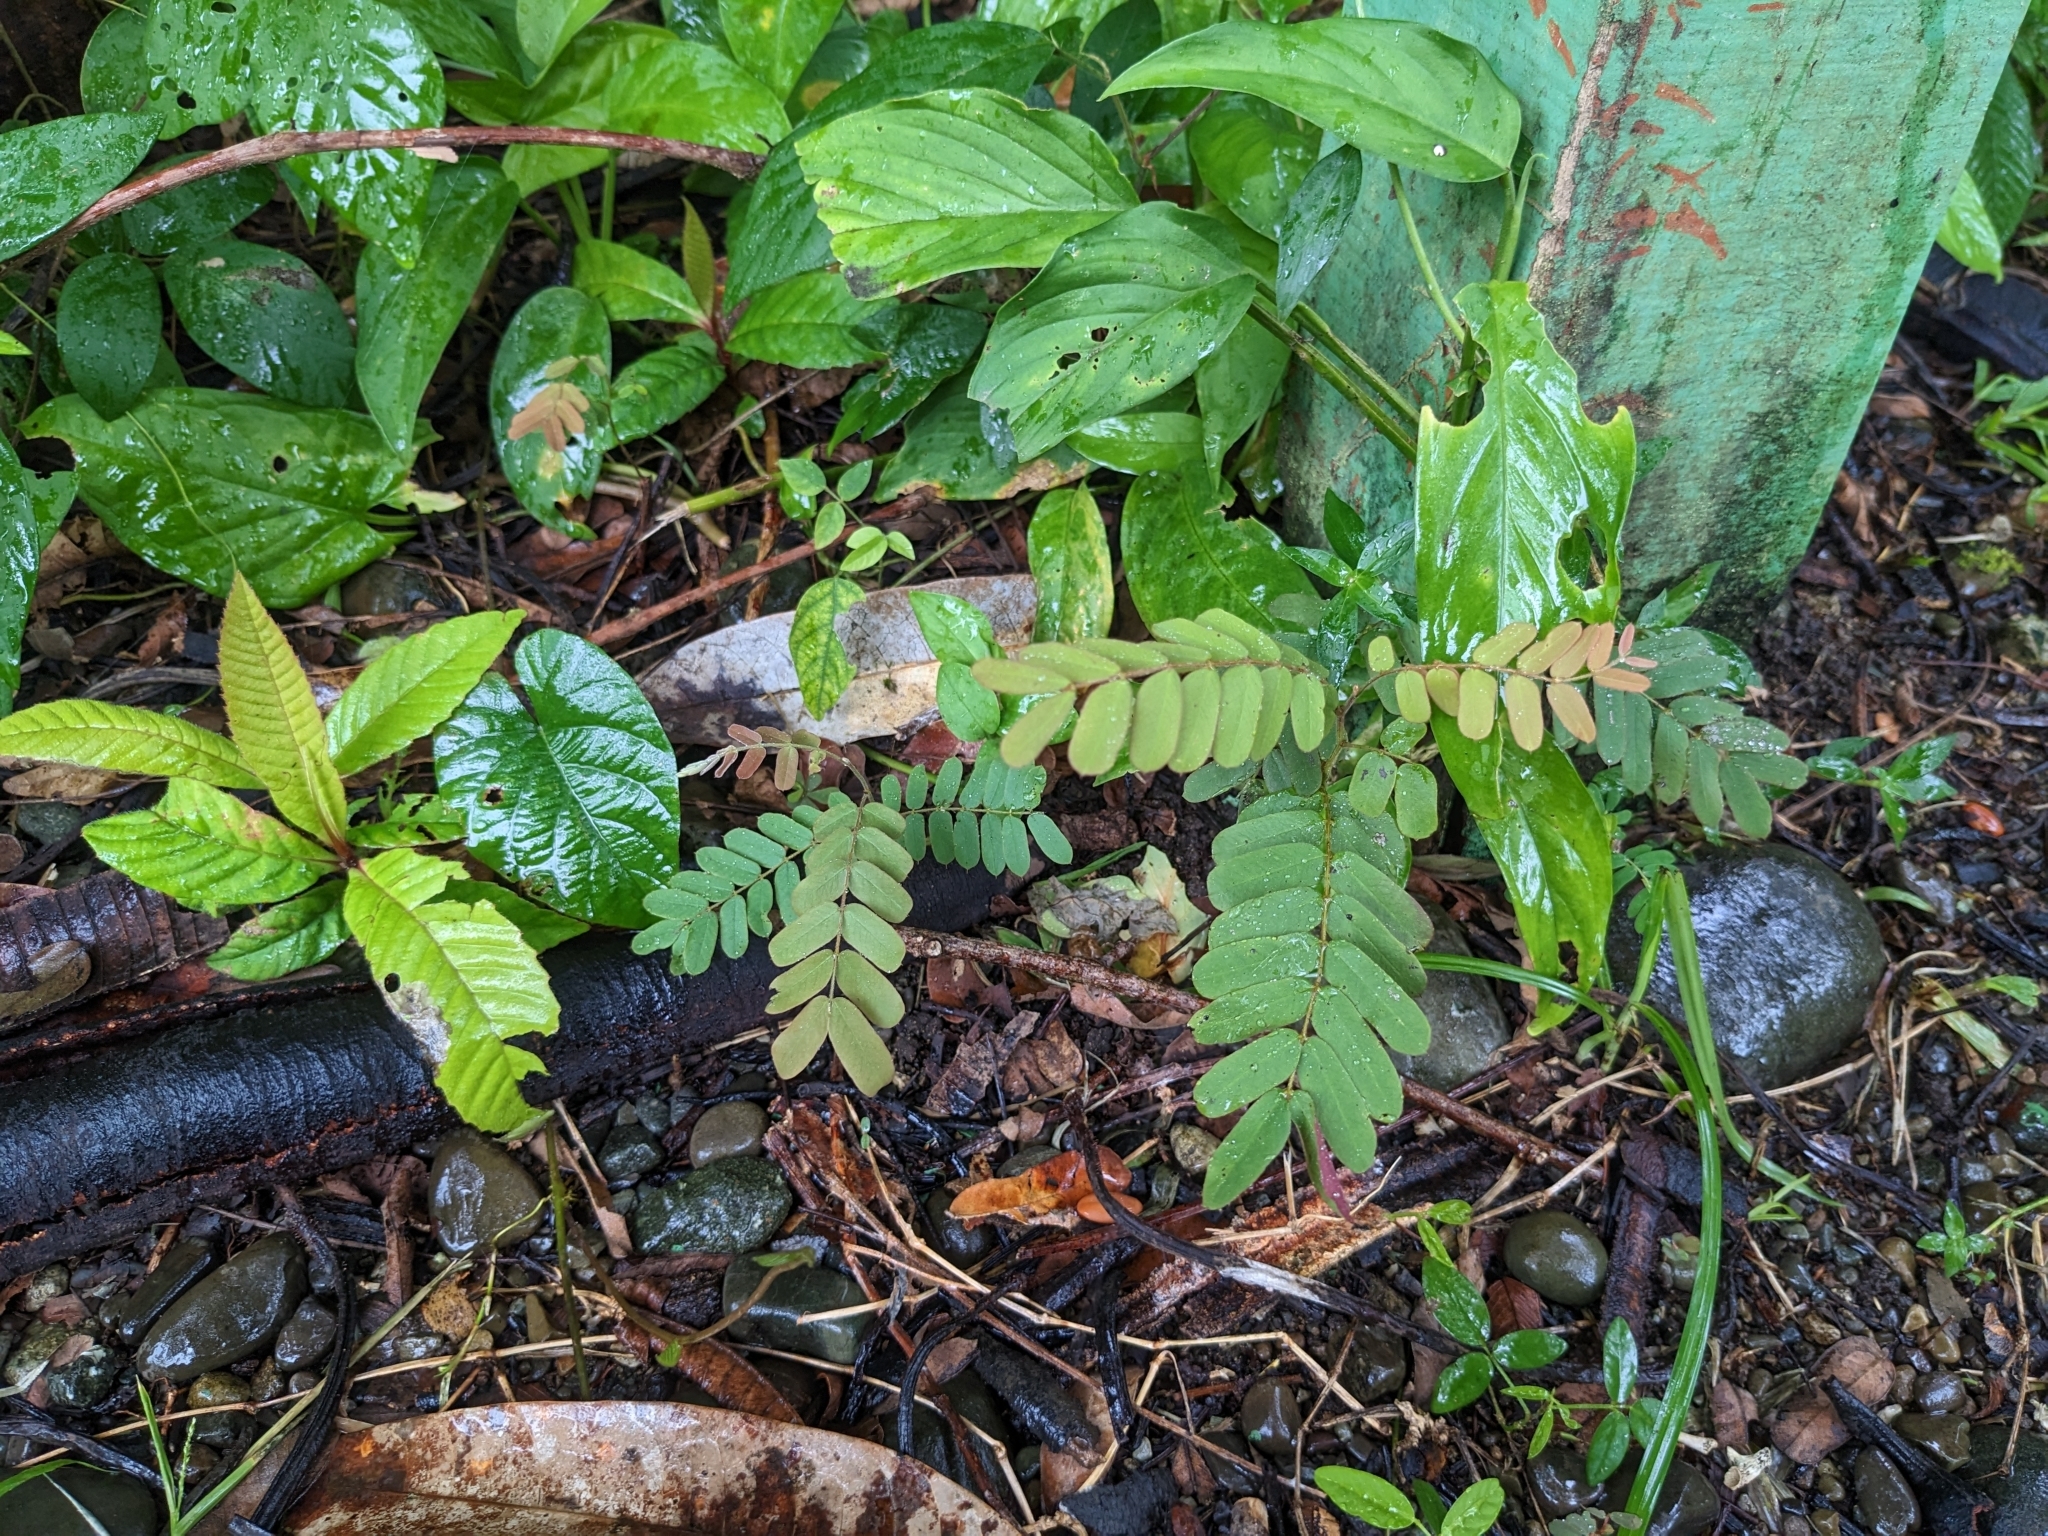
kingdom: Plantae
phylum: Tracheophyta
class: Magnoliopsida
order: Fabales
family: Fabaceae
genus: Cassia
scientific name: Cassia grandis
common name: Appleblossom cassia
